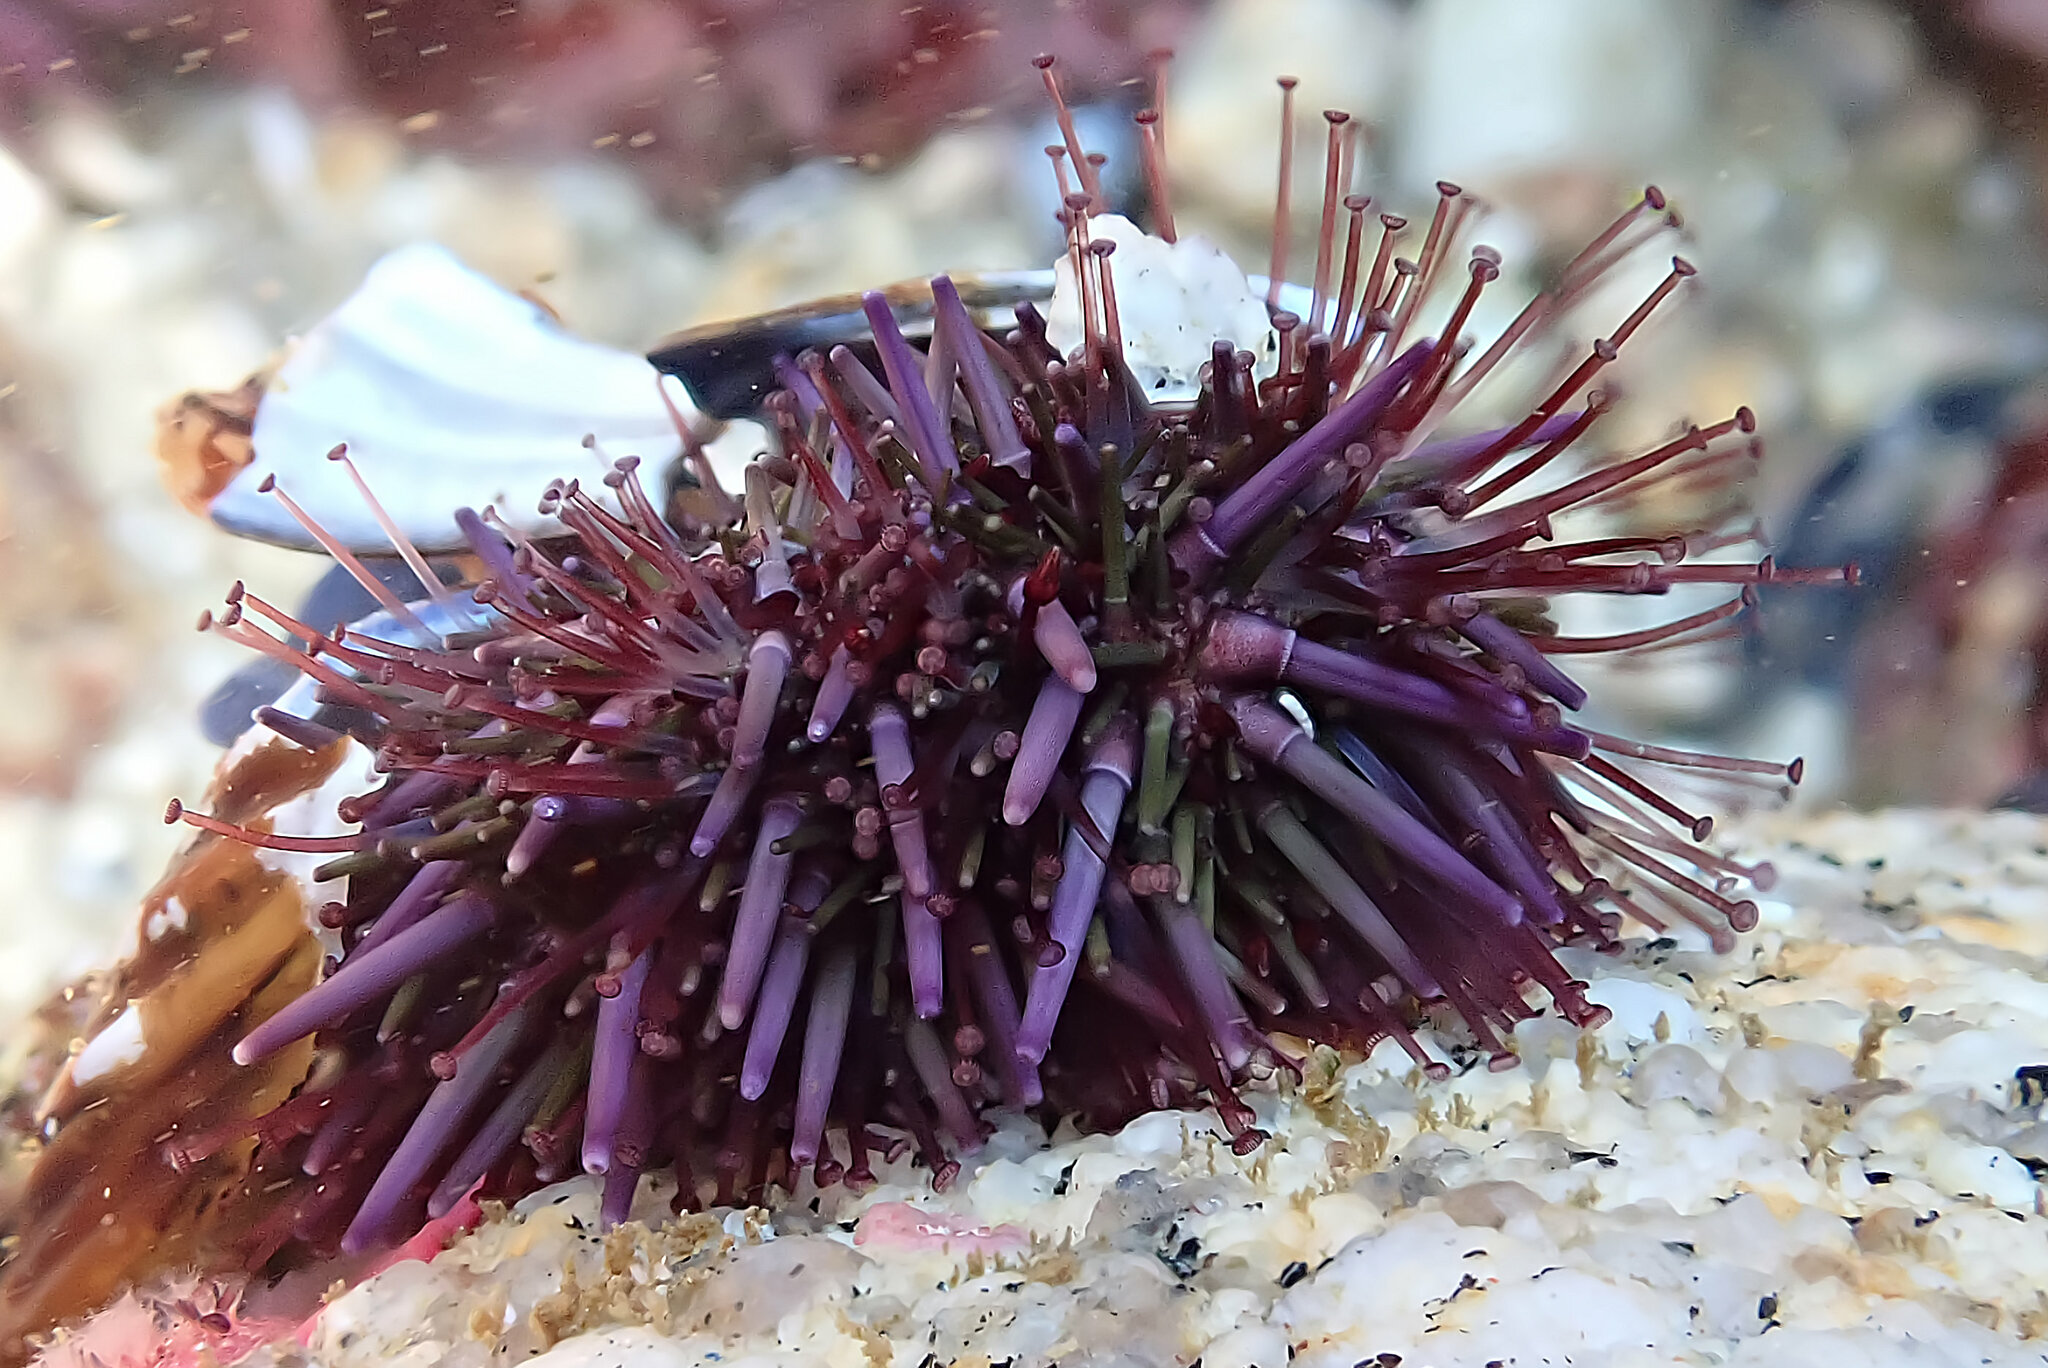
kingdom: Animalia
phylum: Echinodermata
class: Echinoidea
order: Camarodonta
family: Strongylocentrotidae
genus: Strongylocentrotus
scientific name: Strongylocentrotus purpuratus
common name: Purple sea urchin
